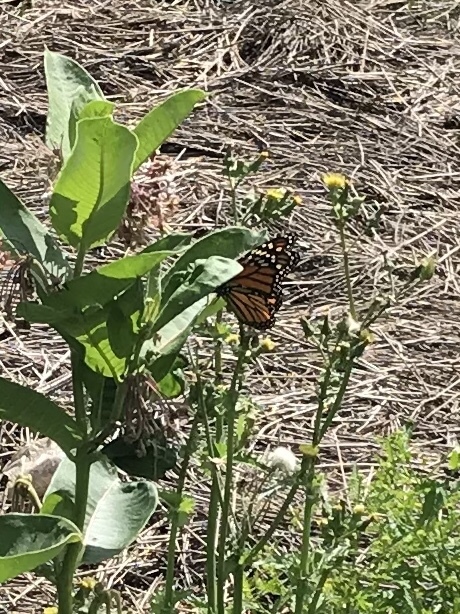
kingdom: Animalia
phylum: Arthropoda
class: Insecta
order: Lepidoptera
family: Nymphalidae
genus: Danaus
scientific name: Danaus plexippus
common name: Monarch
